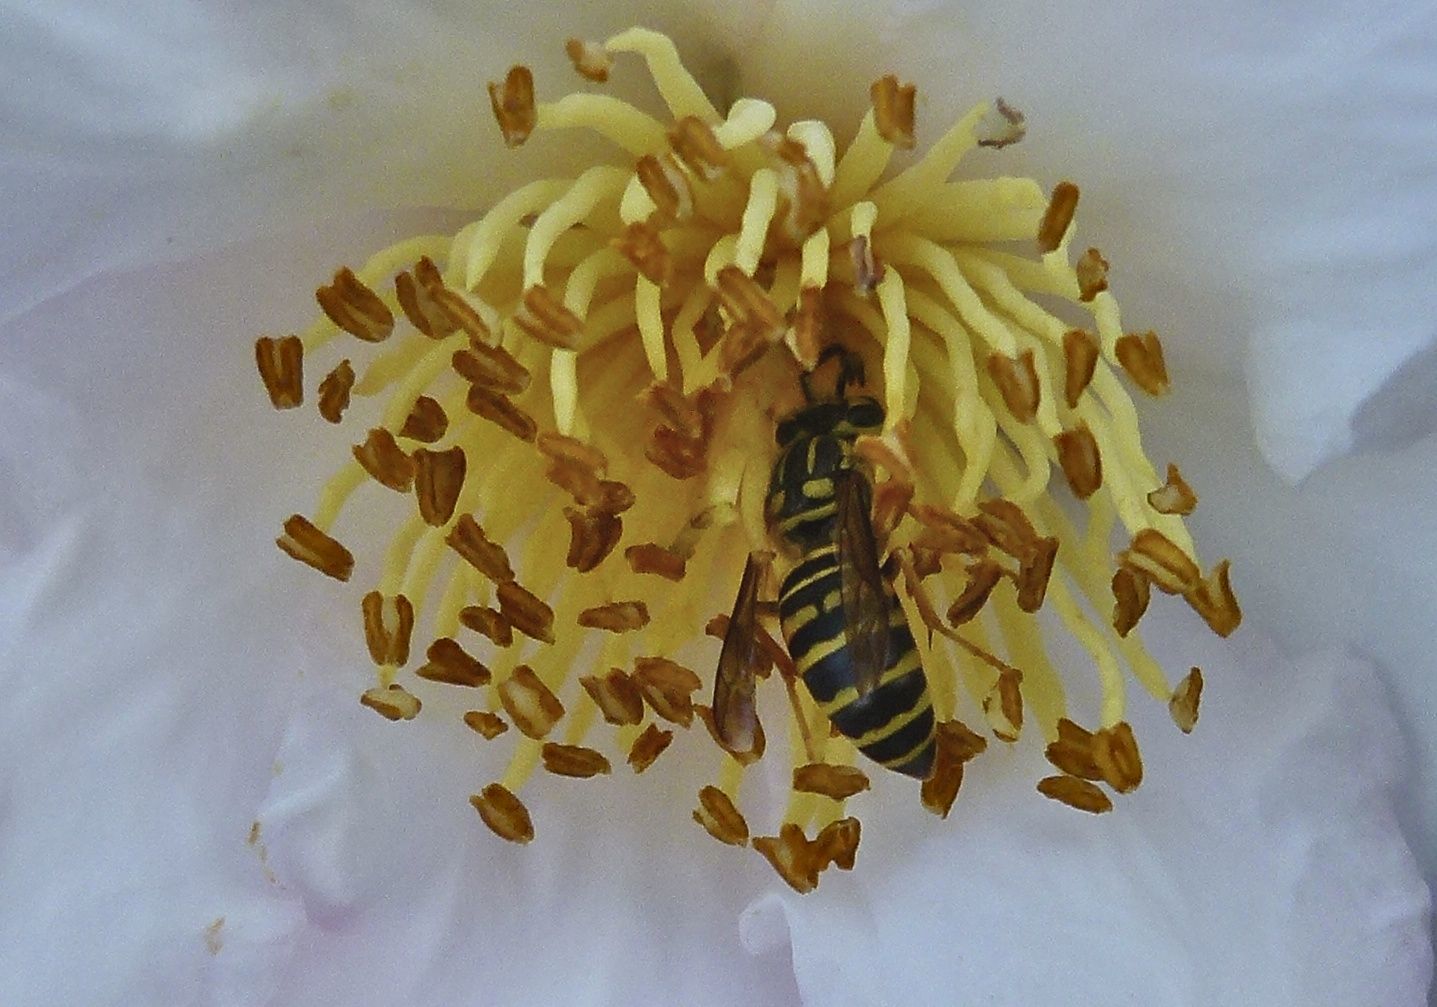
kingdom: Animalia
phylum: Arthropoda
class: Insecta
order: Hymenoptera
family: Vespidae
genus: Vespula
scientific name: Vespula squamosa
